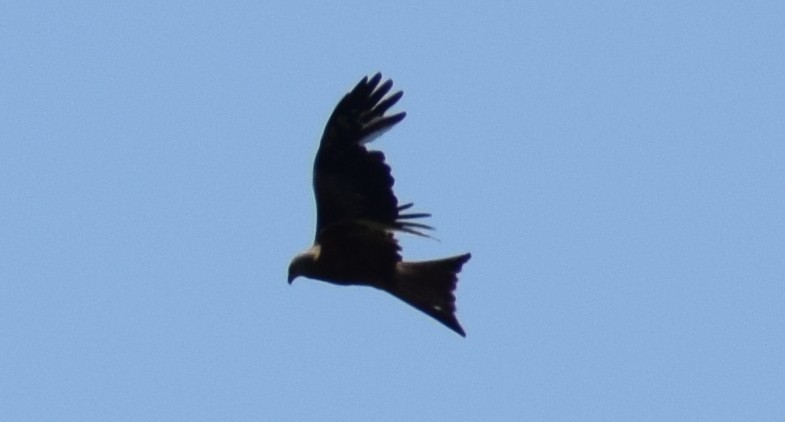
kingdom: Animalia
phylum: Chordata
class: Aves
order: Accipitriformes
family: Accipitridae
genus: Milvus
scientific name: Milvus milvus
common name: Red kite
